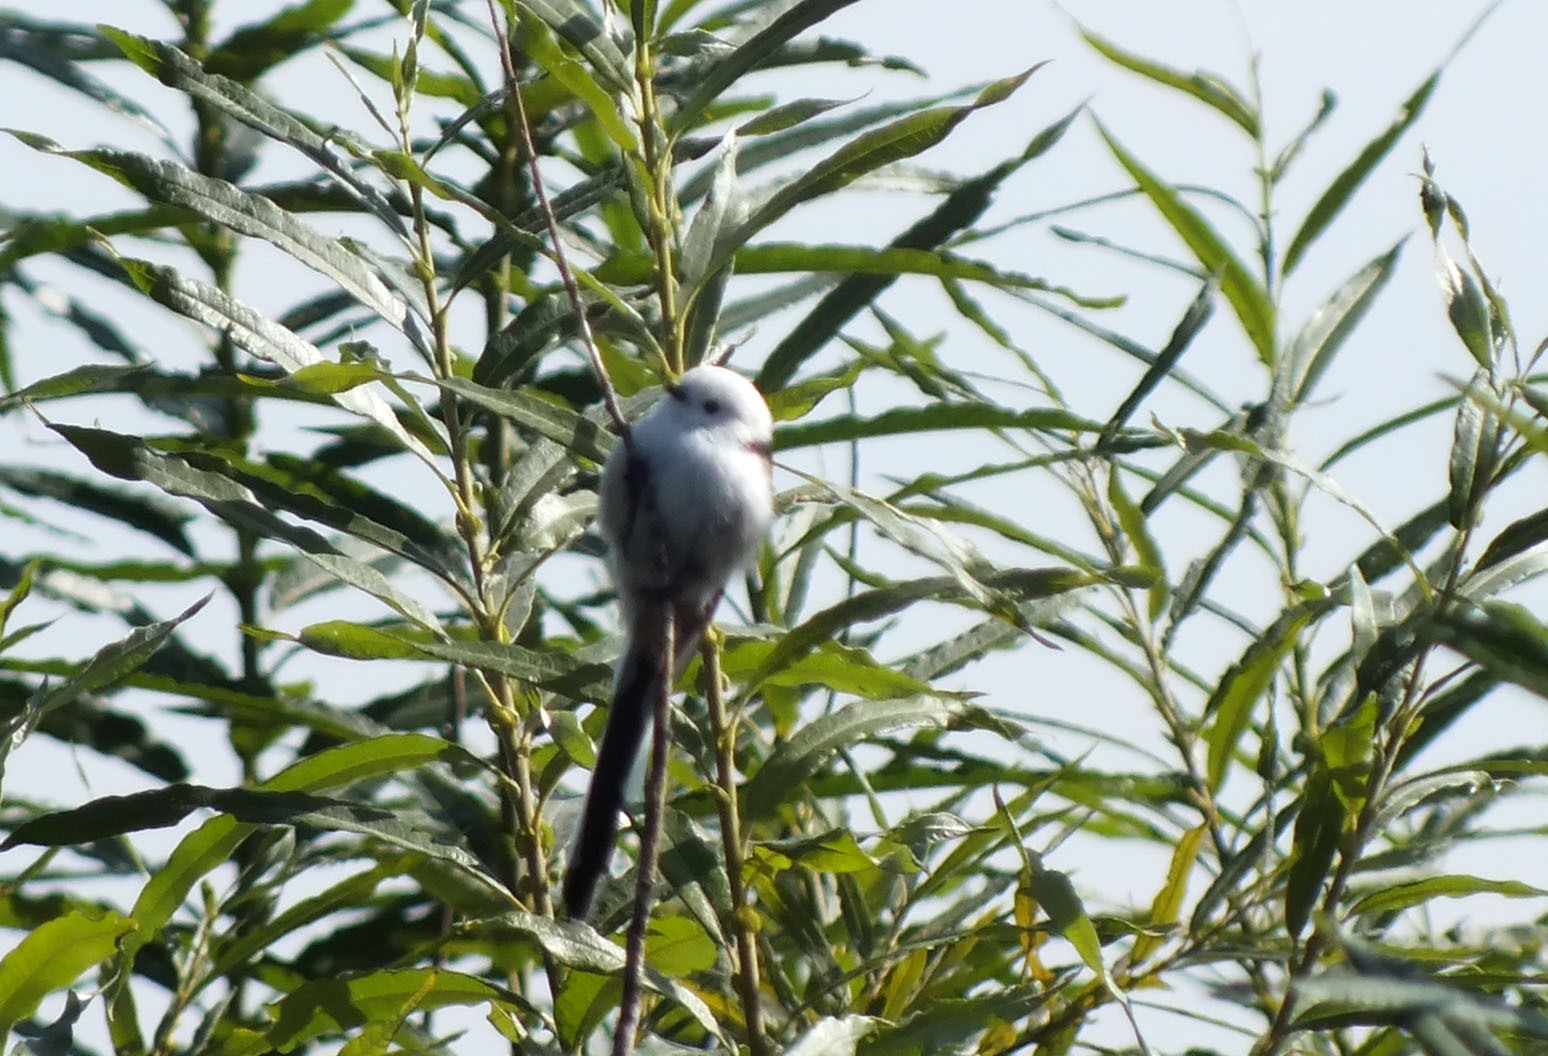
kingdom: Animalia
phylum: Chordata
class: Aves
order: Passeriformes
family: Aegithalidae
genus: Aegithalos
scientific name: Aegithalos caudatus
